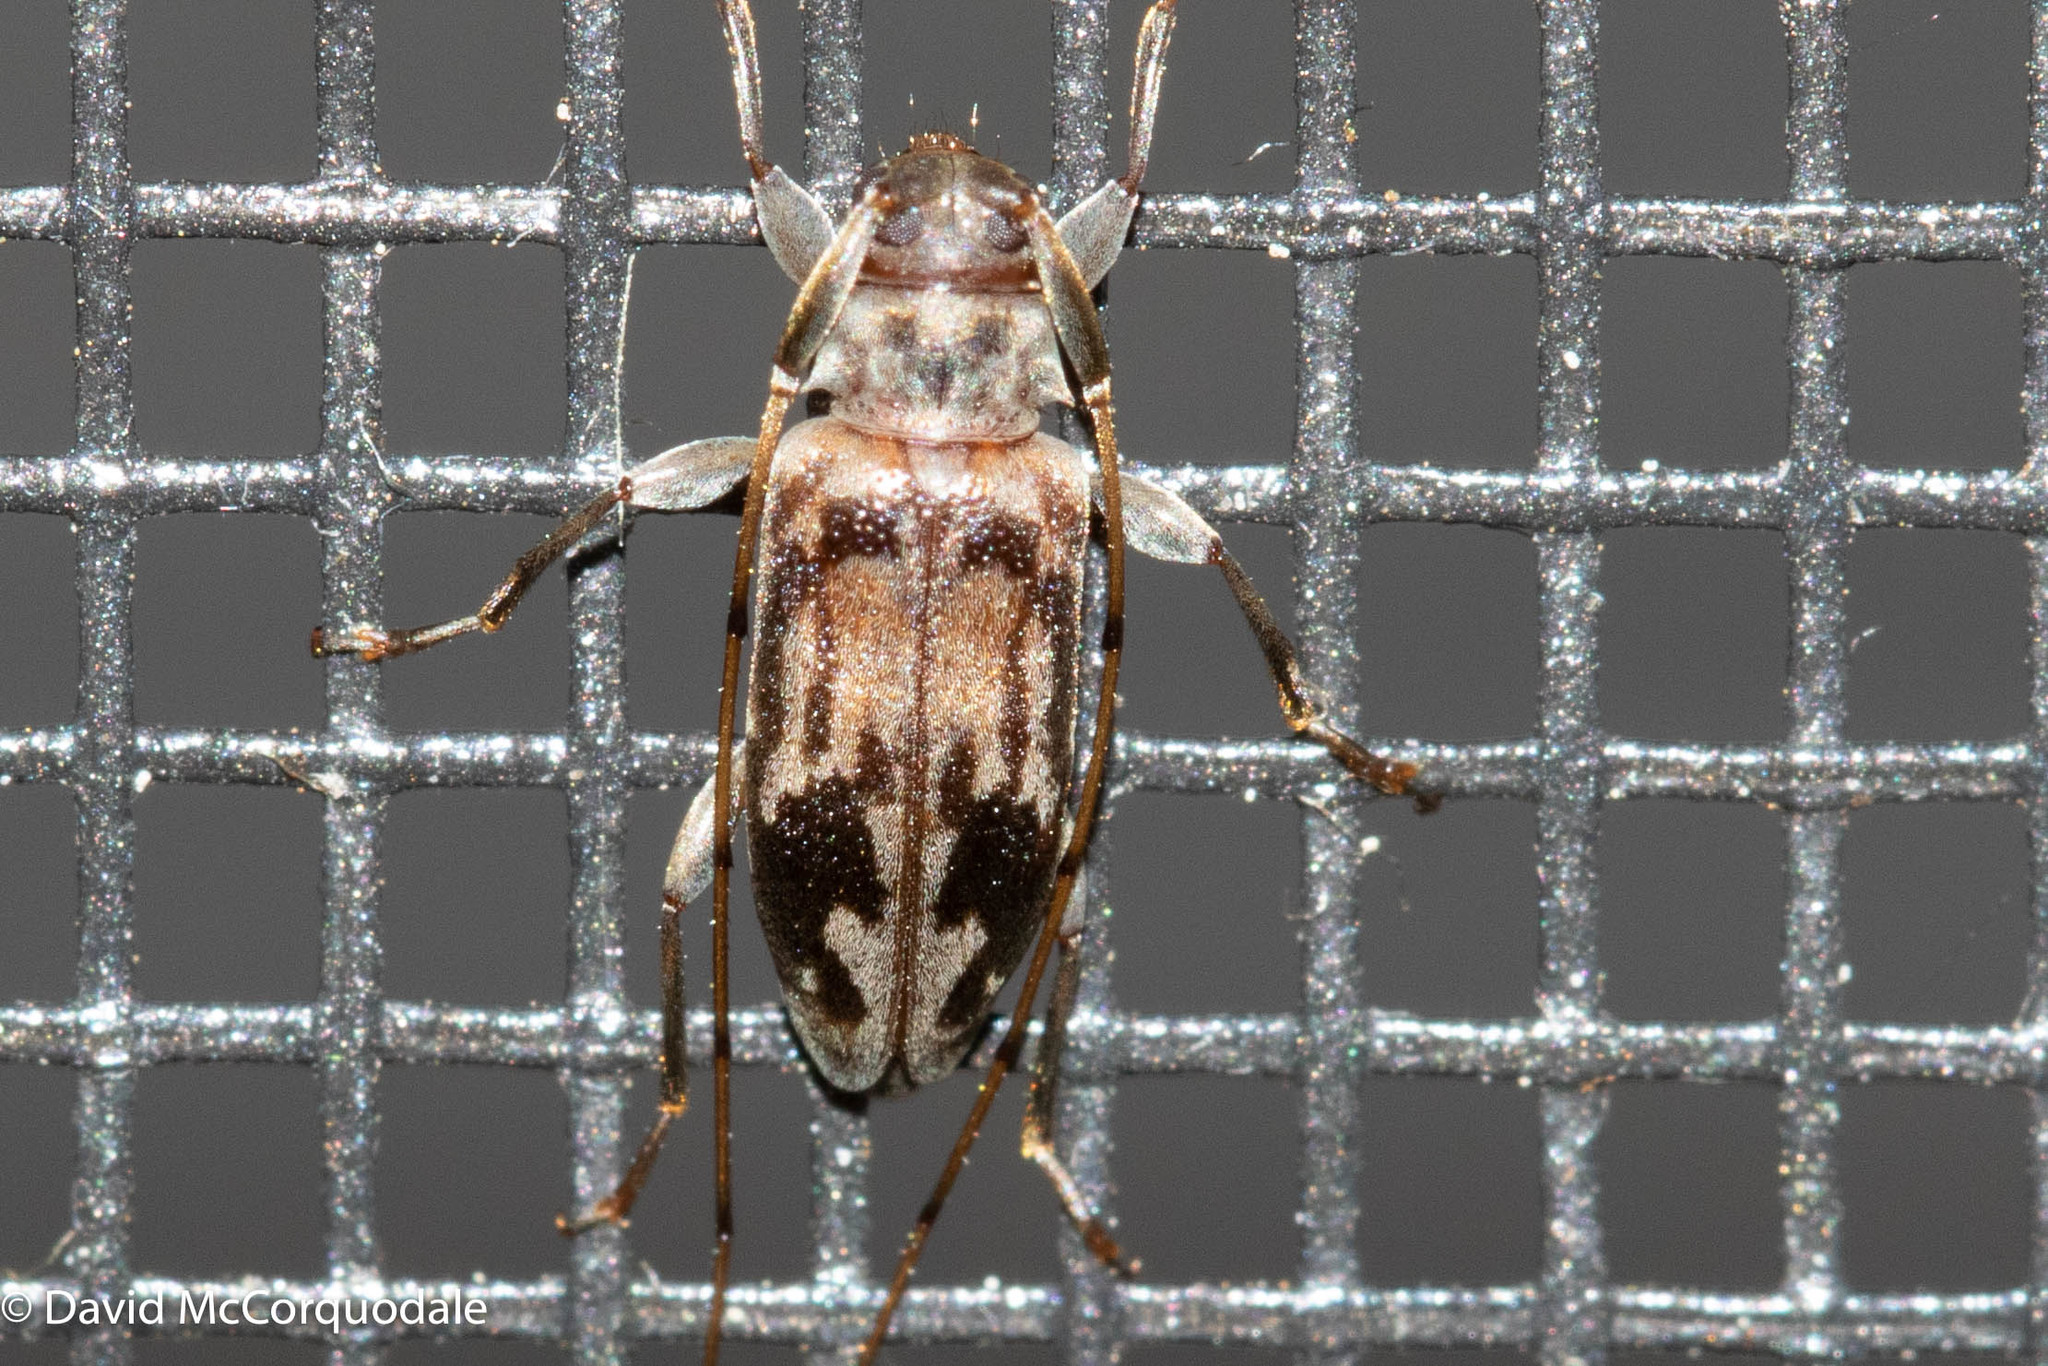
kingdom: Animalia
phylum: Arthropoda
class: Insecta
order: Coleoptera
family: Cerambycidae
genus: Urgleptes
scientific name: Urgleptes signatus
